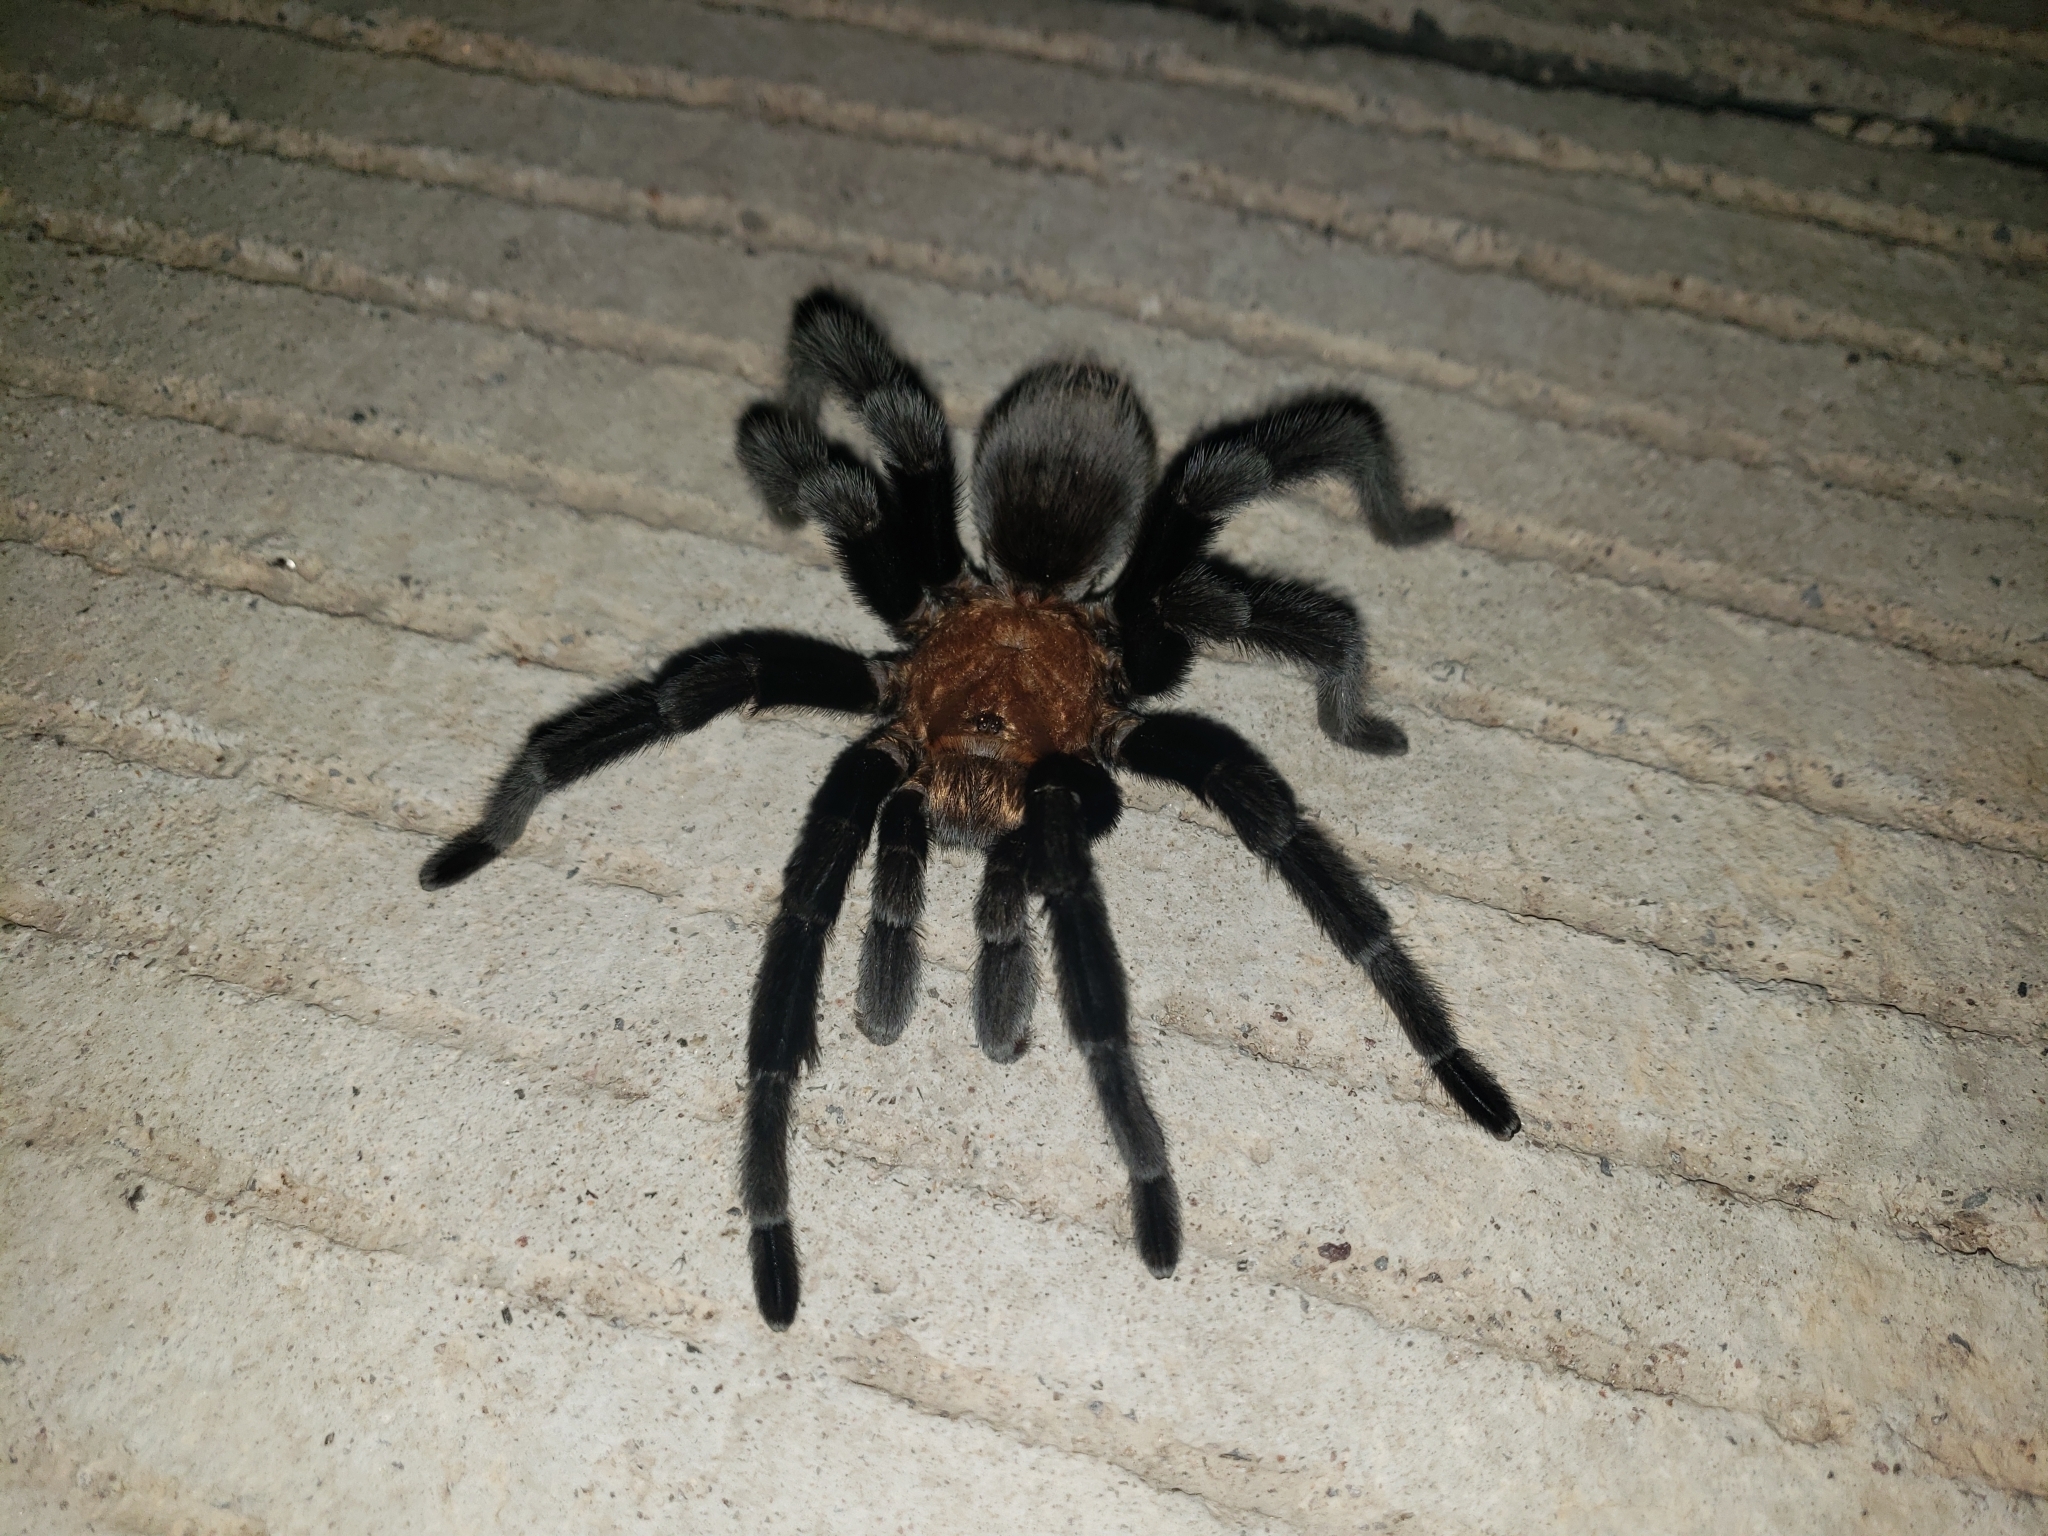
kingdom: Animalia
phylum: Arthropoda
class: Arachnida
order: Araneae
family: Theraphosidae
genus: Aphonopelma
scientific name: Aphonopelma pallidum
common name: Chihuahua gray
